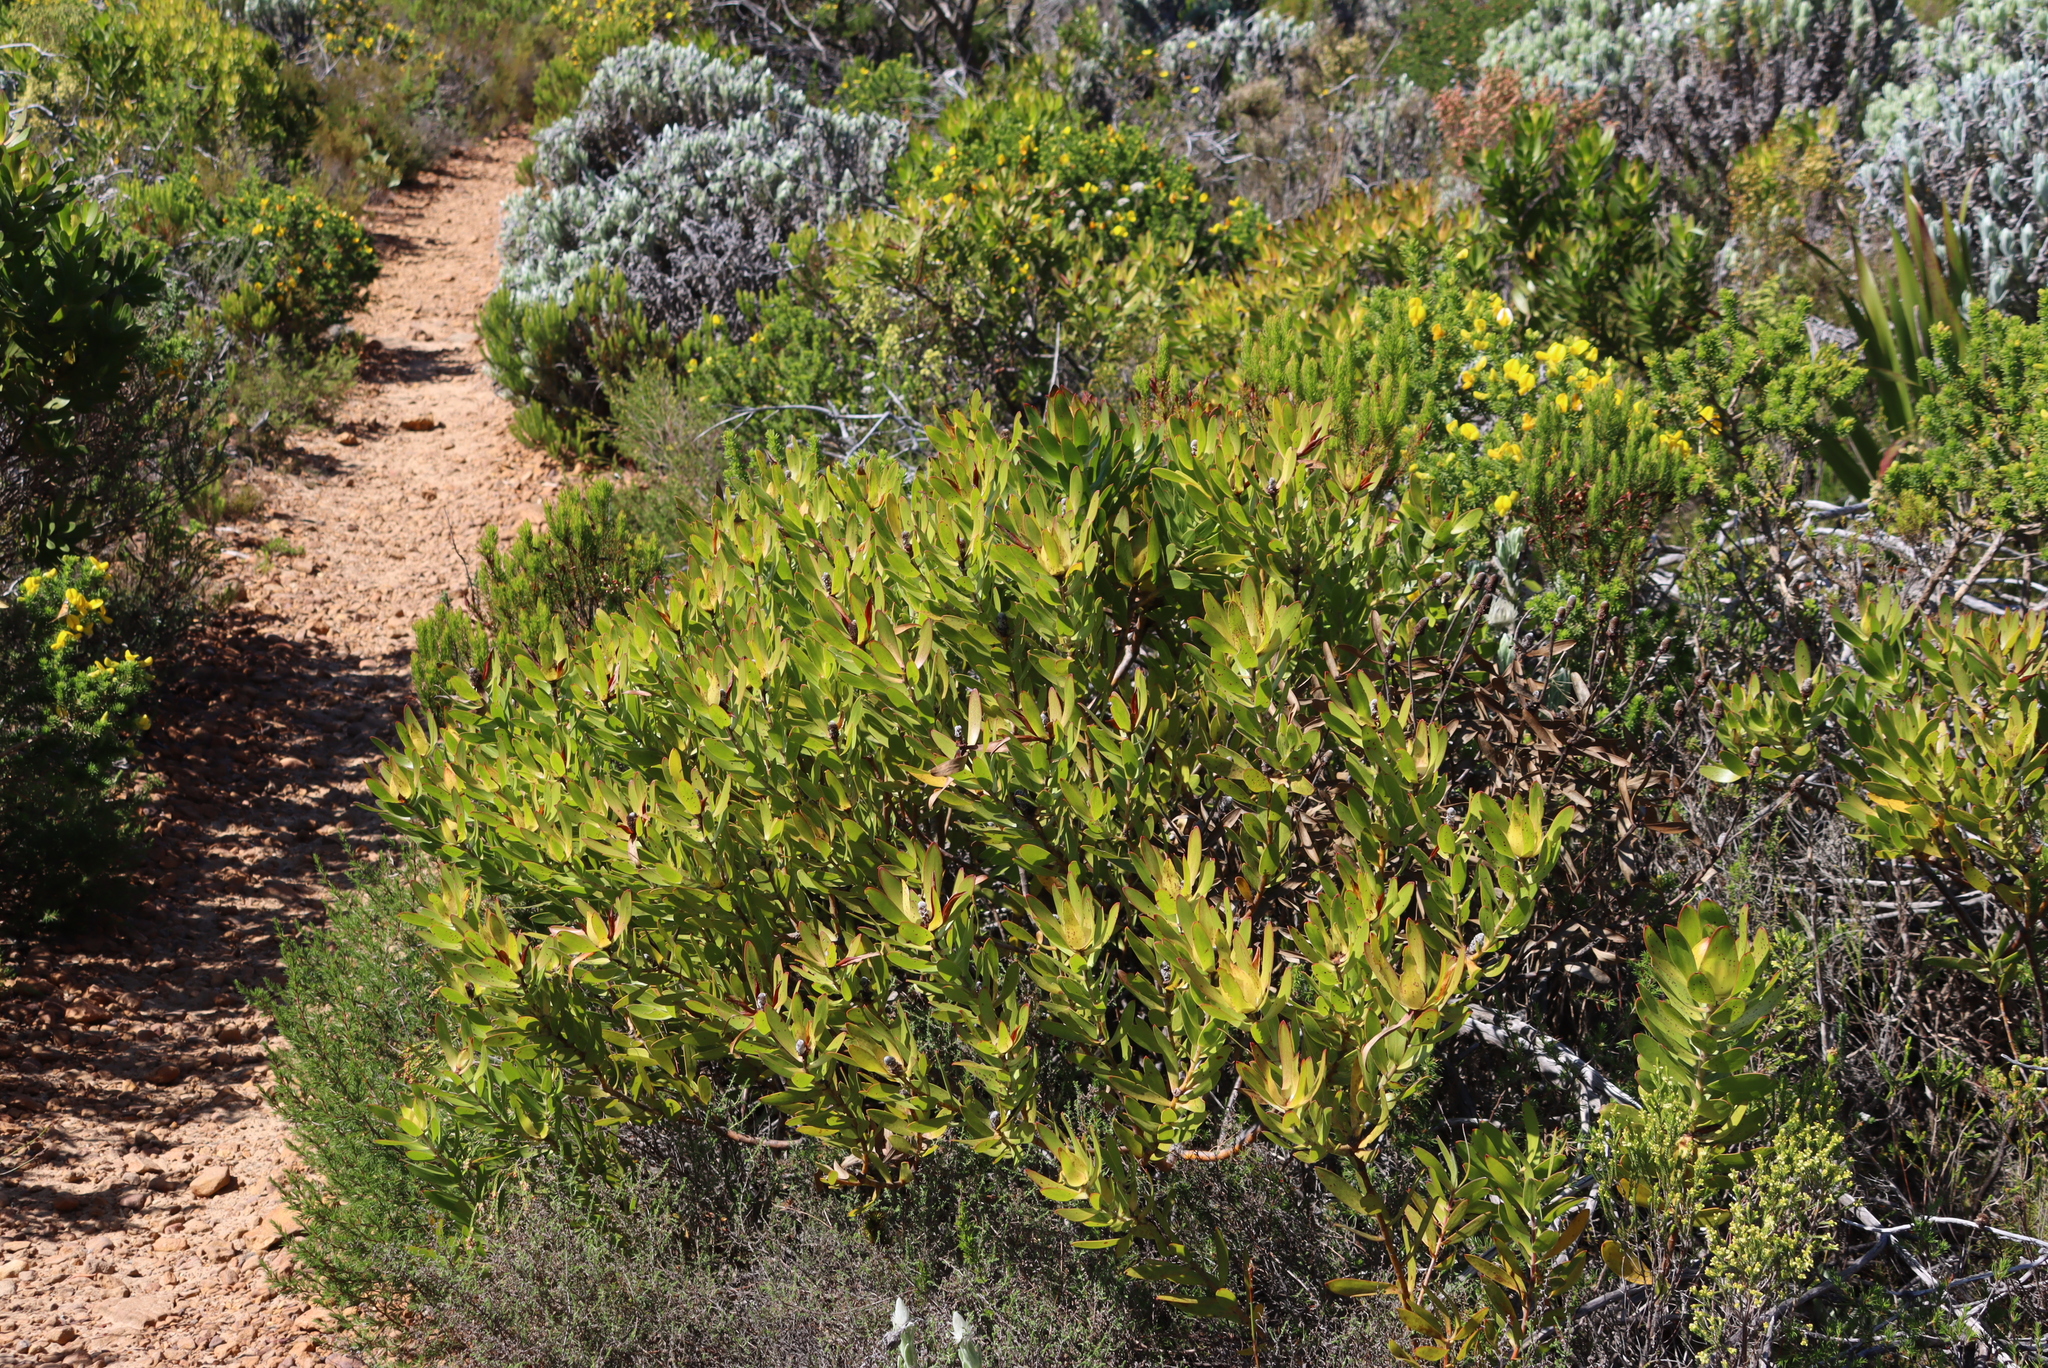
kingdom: Plantae
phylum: Tracheophyta
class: Magnoliopsida
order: Proteales
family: Proteaceae
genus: Leucadendron
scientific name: Leucadendron laureolum
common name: Golden sunshinebush
